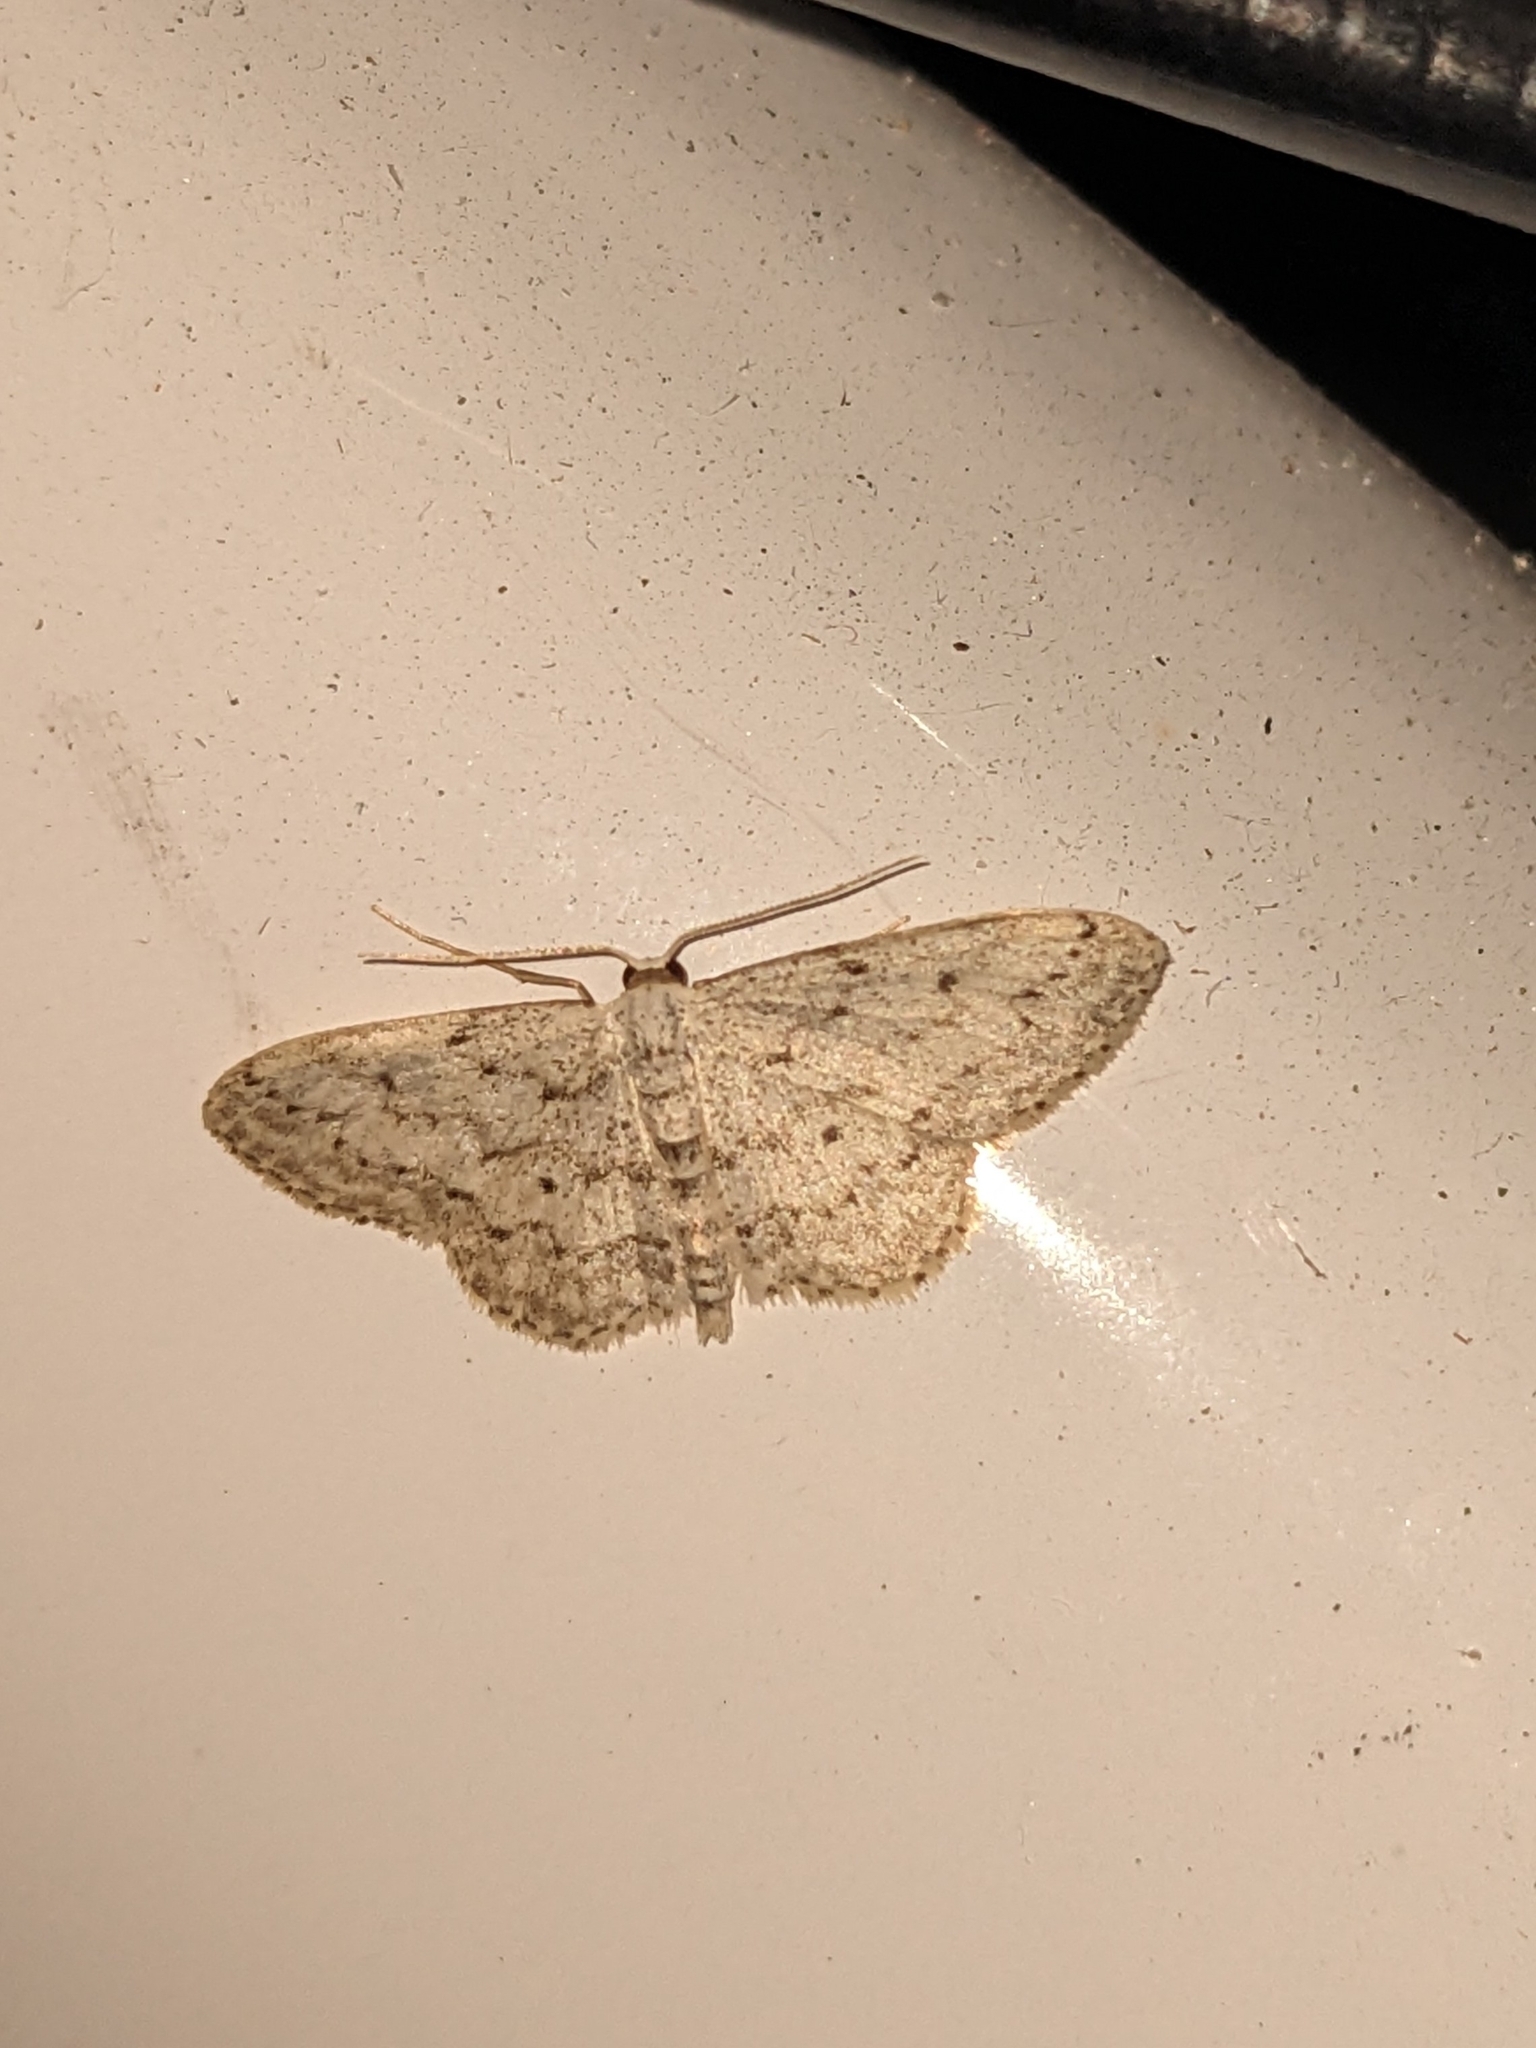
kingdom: Animalia
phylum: Arthropoda
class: Insecta
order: Lepidoptera
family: Geometridae
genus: Idaea
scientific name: Idaea seriata
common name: Small dusty wave
